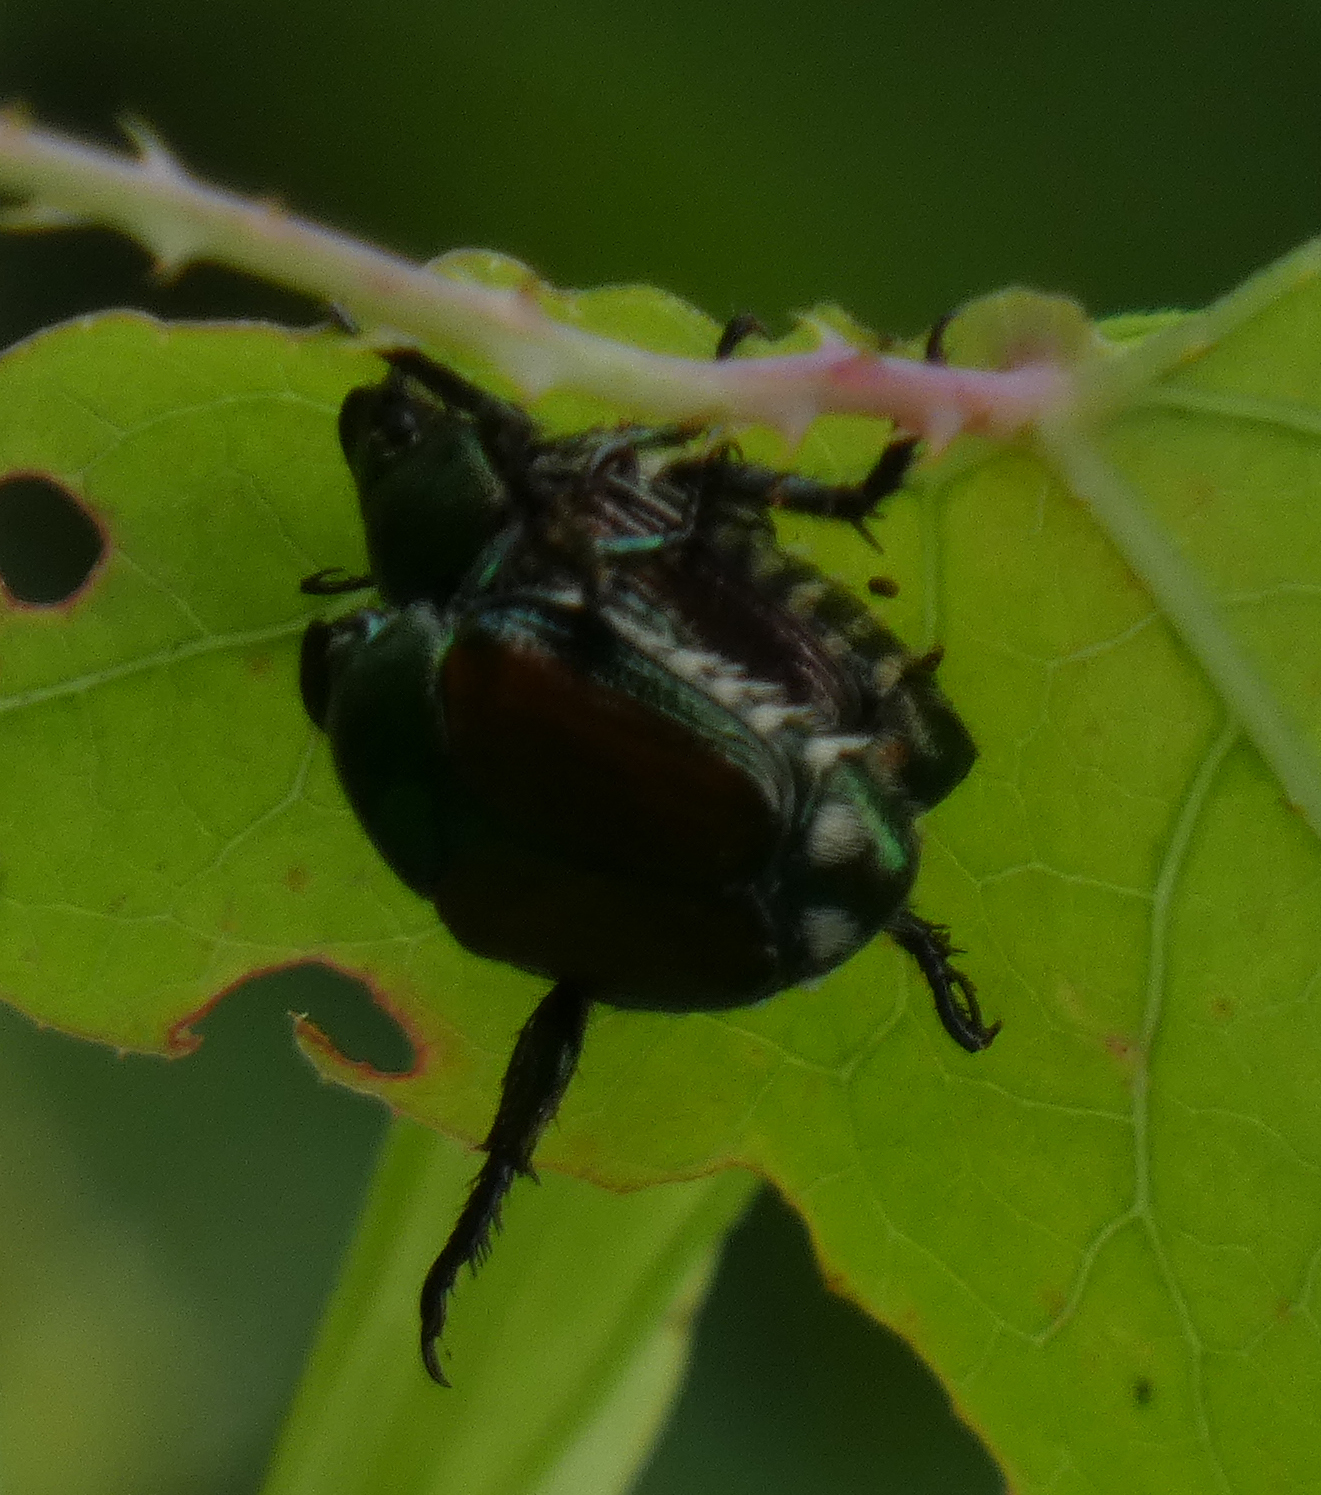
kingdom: Animalia
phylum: Arthropoda
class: Insecta
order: Coleoptera
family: Scarabaeidae
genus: Popillia
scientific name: Popillia japonica
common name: Japanese beetle
